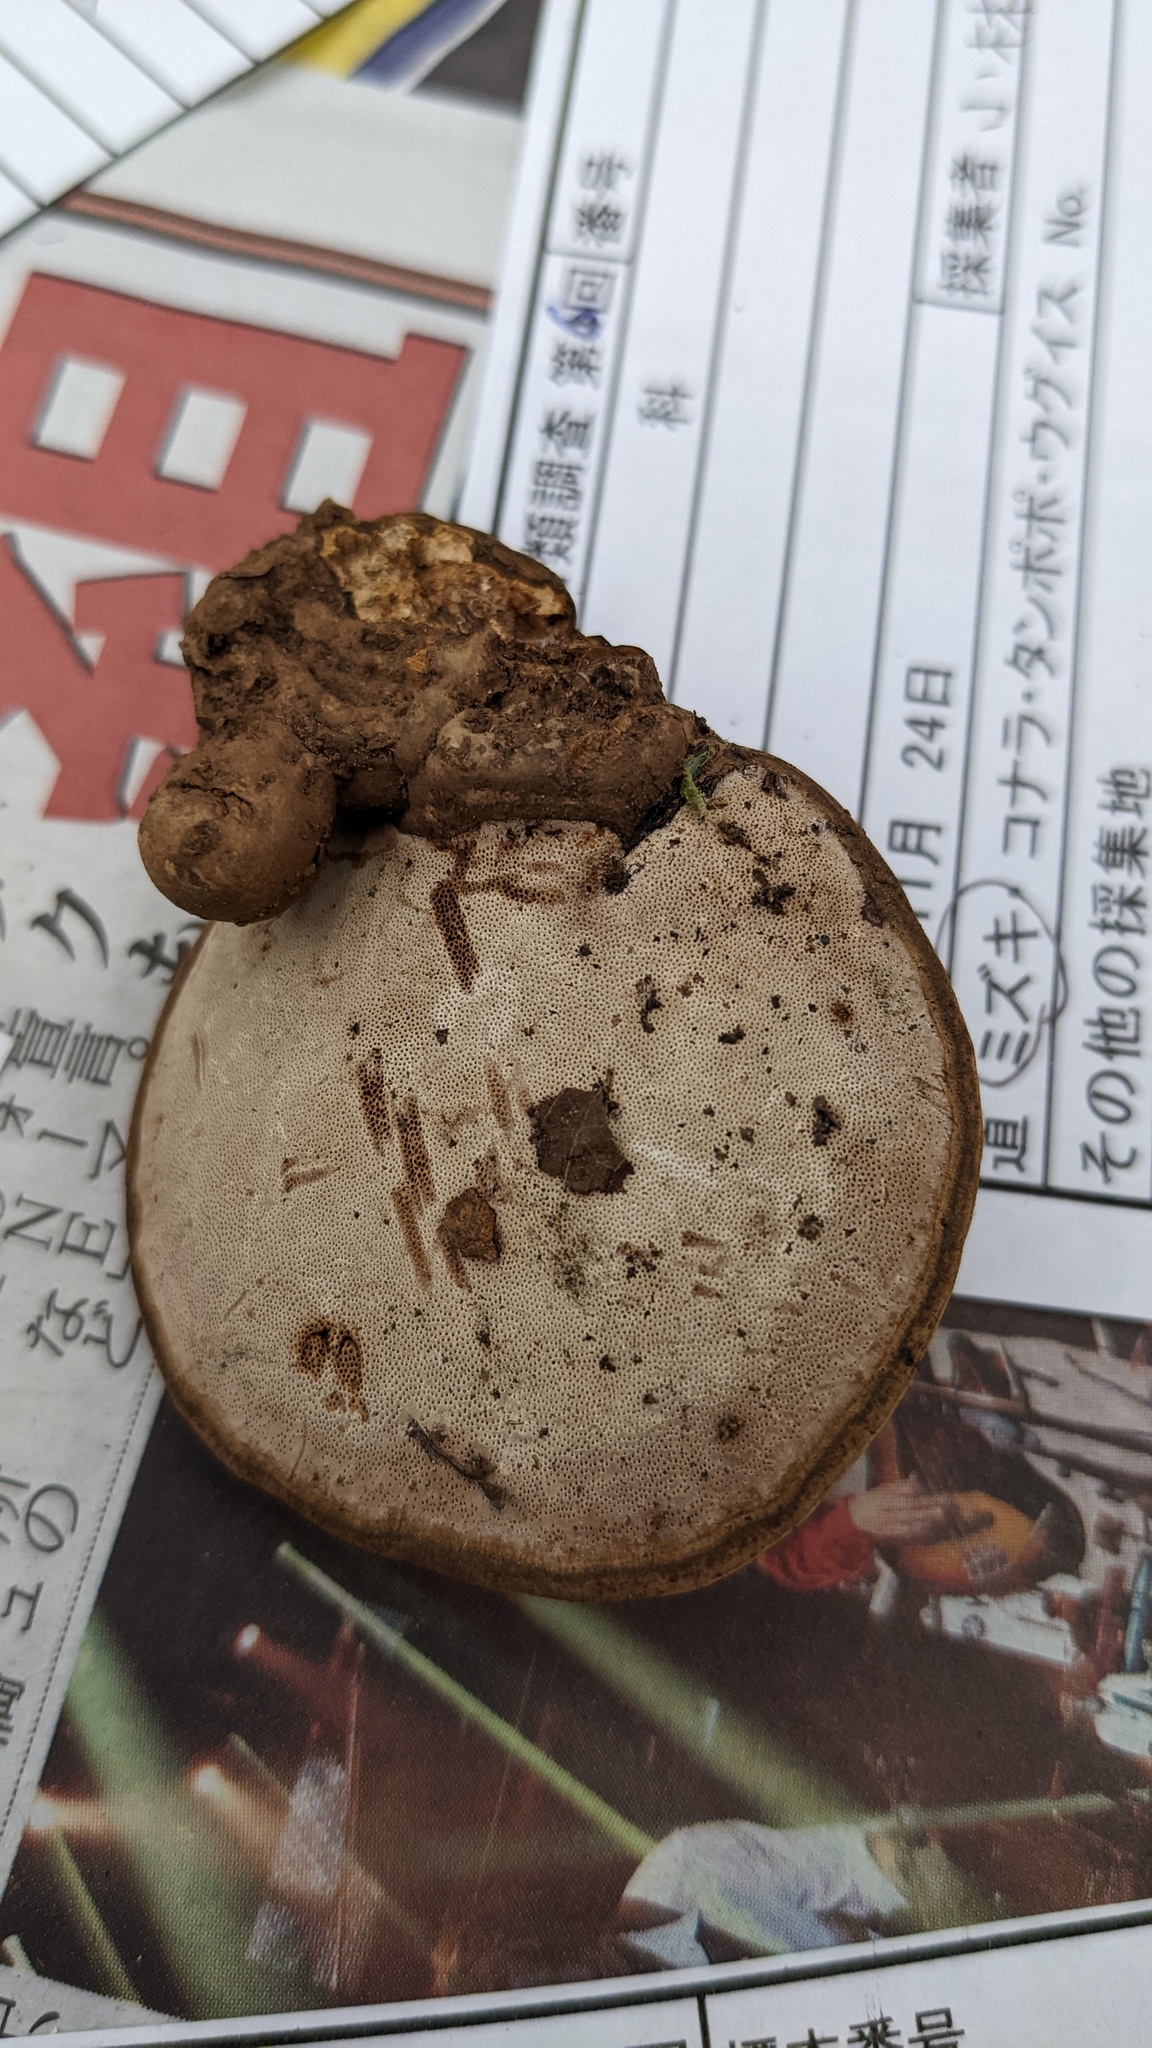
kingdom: Fungi
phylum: Basidiomycota
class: Agaricomycetes
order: Polyporales
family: Polyporaceae
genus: Ganoderma
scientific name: Ganoderma applanatum
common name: Artist's bracket
